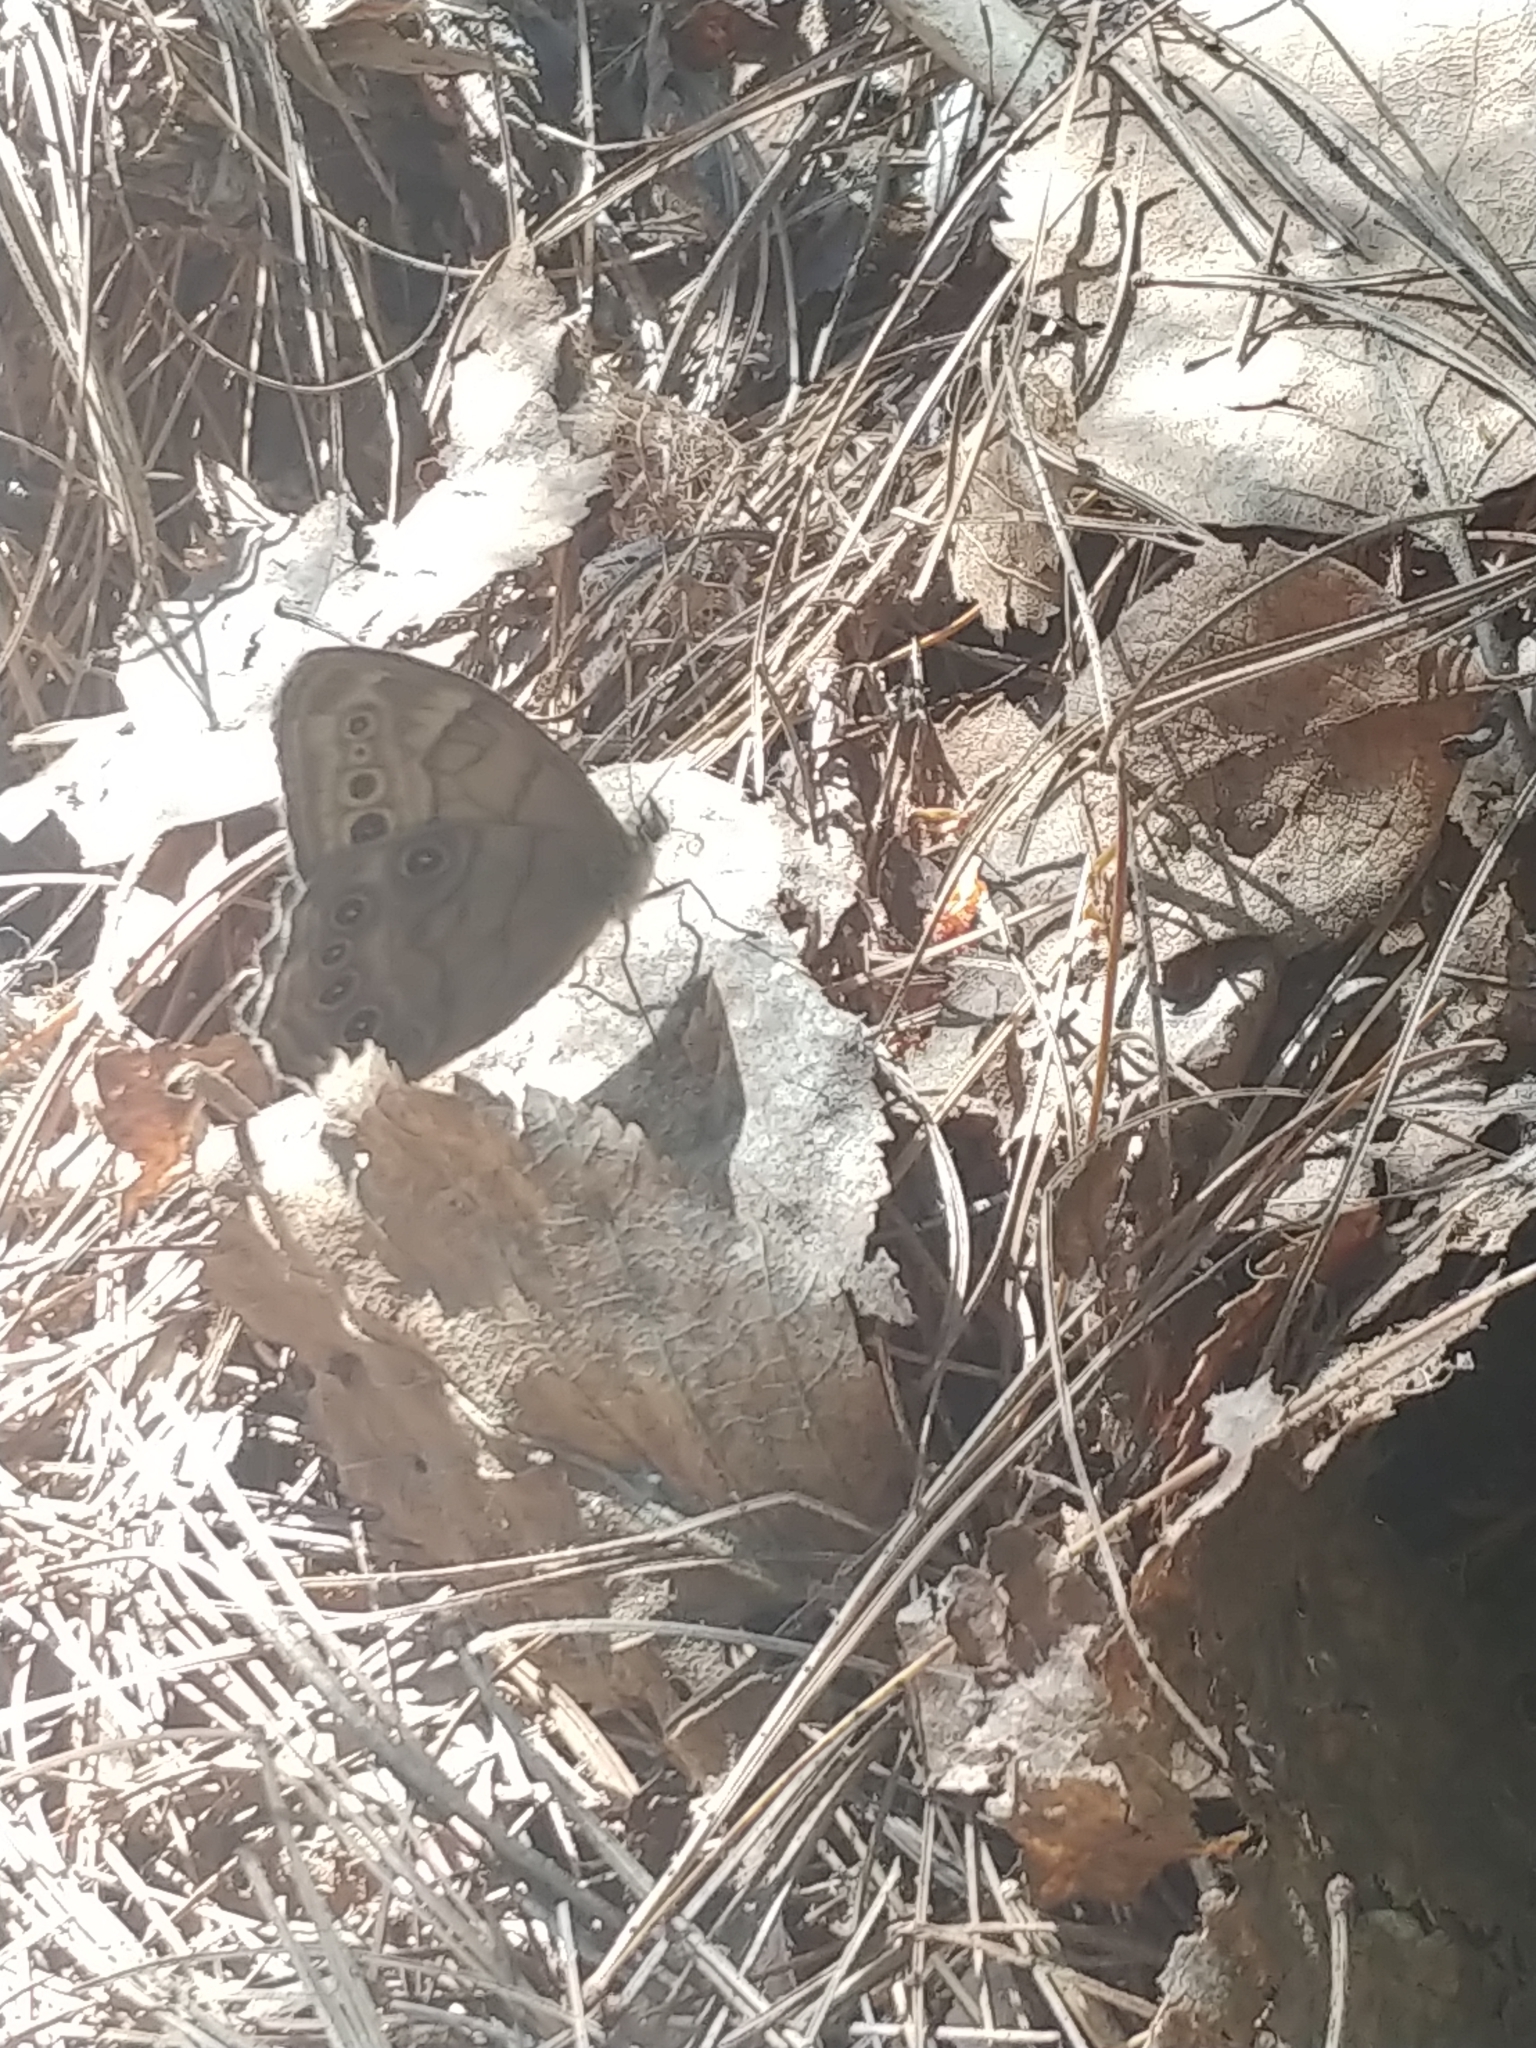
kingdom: Animalia
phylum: Arthropoda
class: Insecta
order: Lepidoptera
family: Nymphalidae
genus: Lethe
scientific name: Lethe anthedon
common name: Northern pearly-eye
